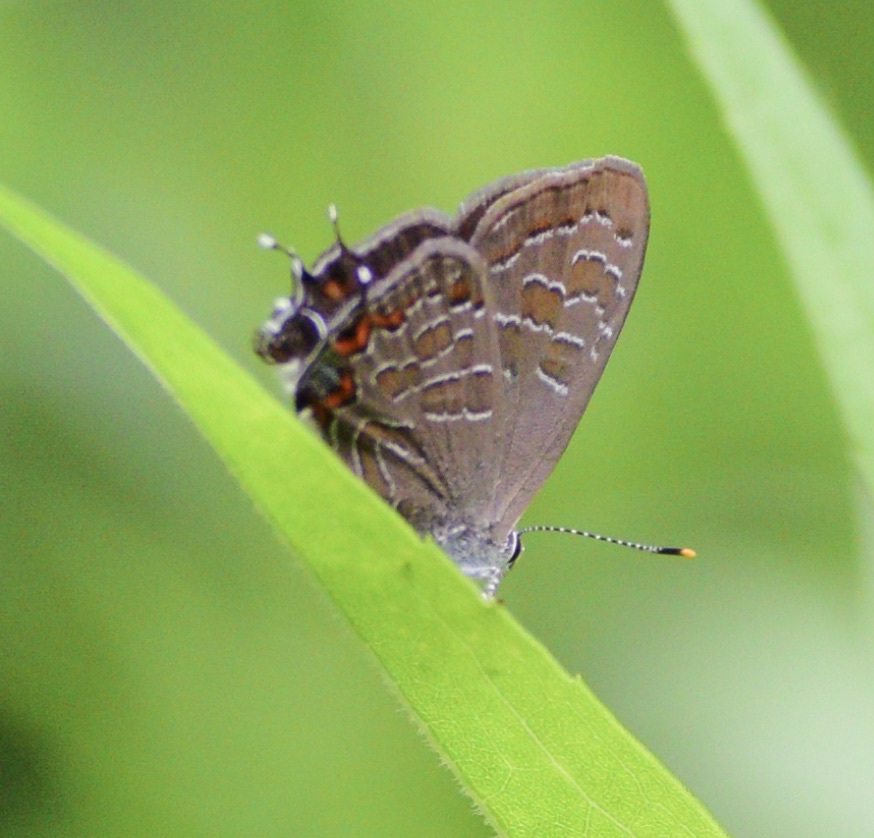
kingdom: Animalia
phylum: Arthropoda
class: Insecta
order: Lepidoptera
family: Lycaenidae
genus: Satyrium
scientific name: Satyrium liparops
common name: Striped hairstreak
